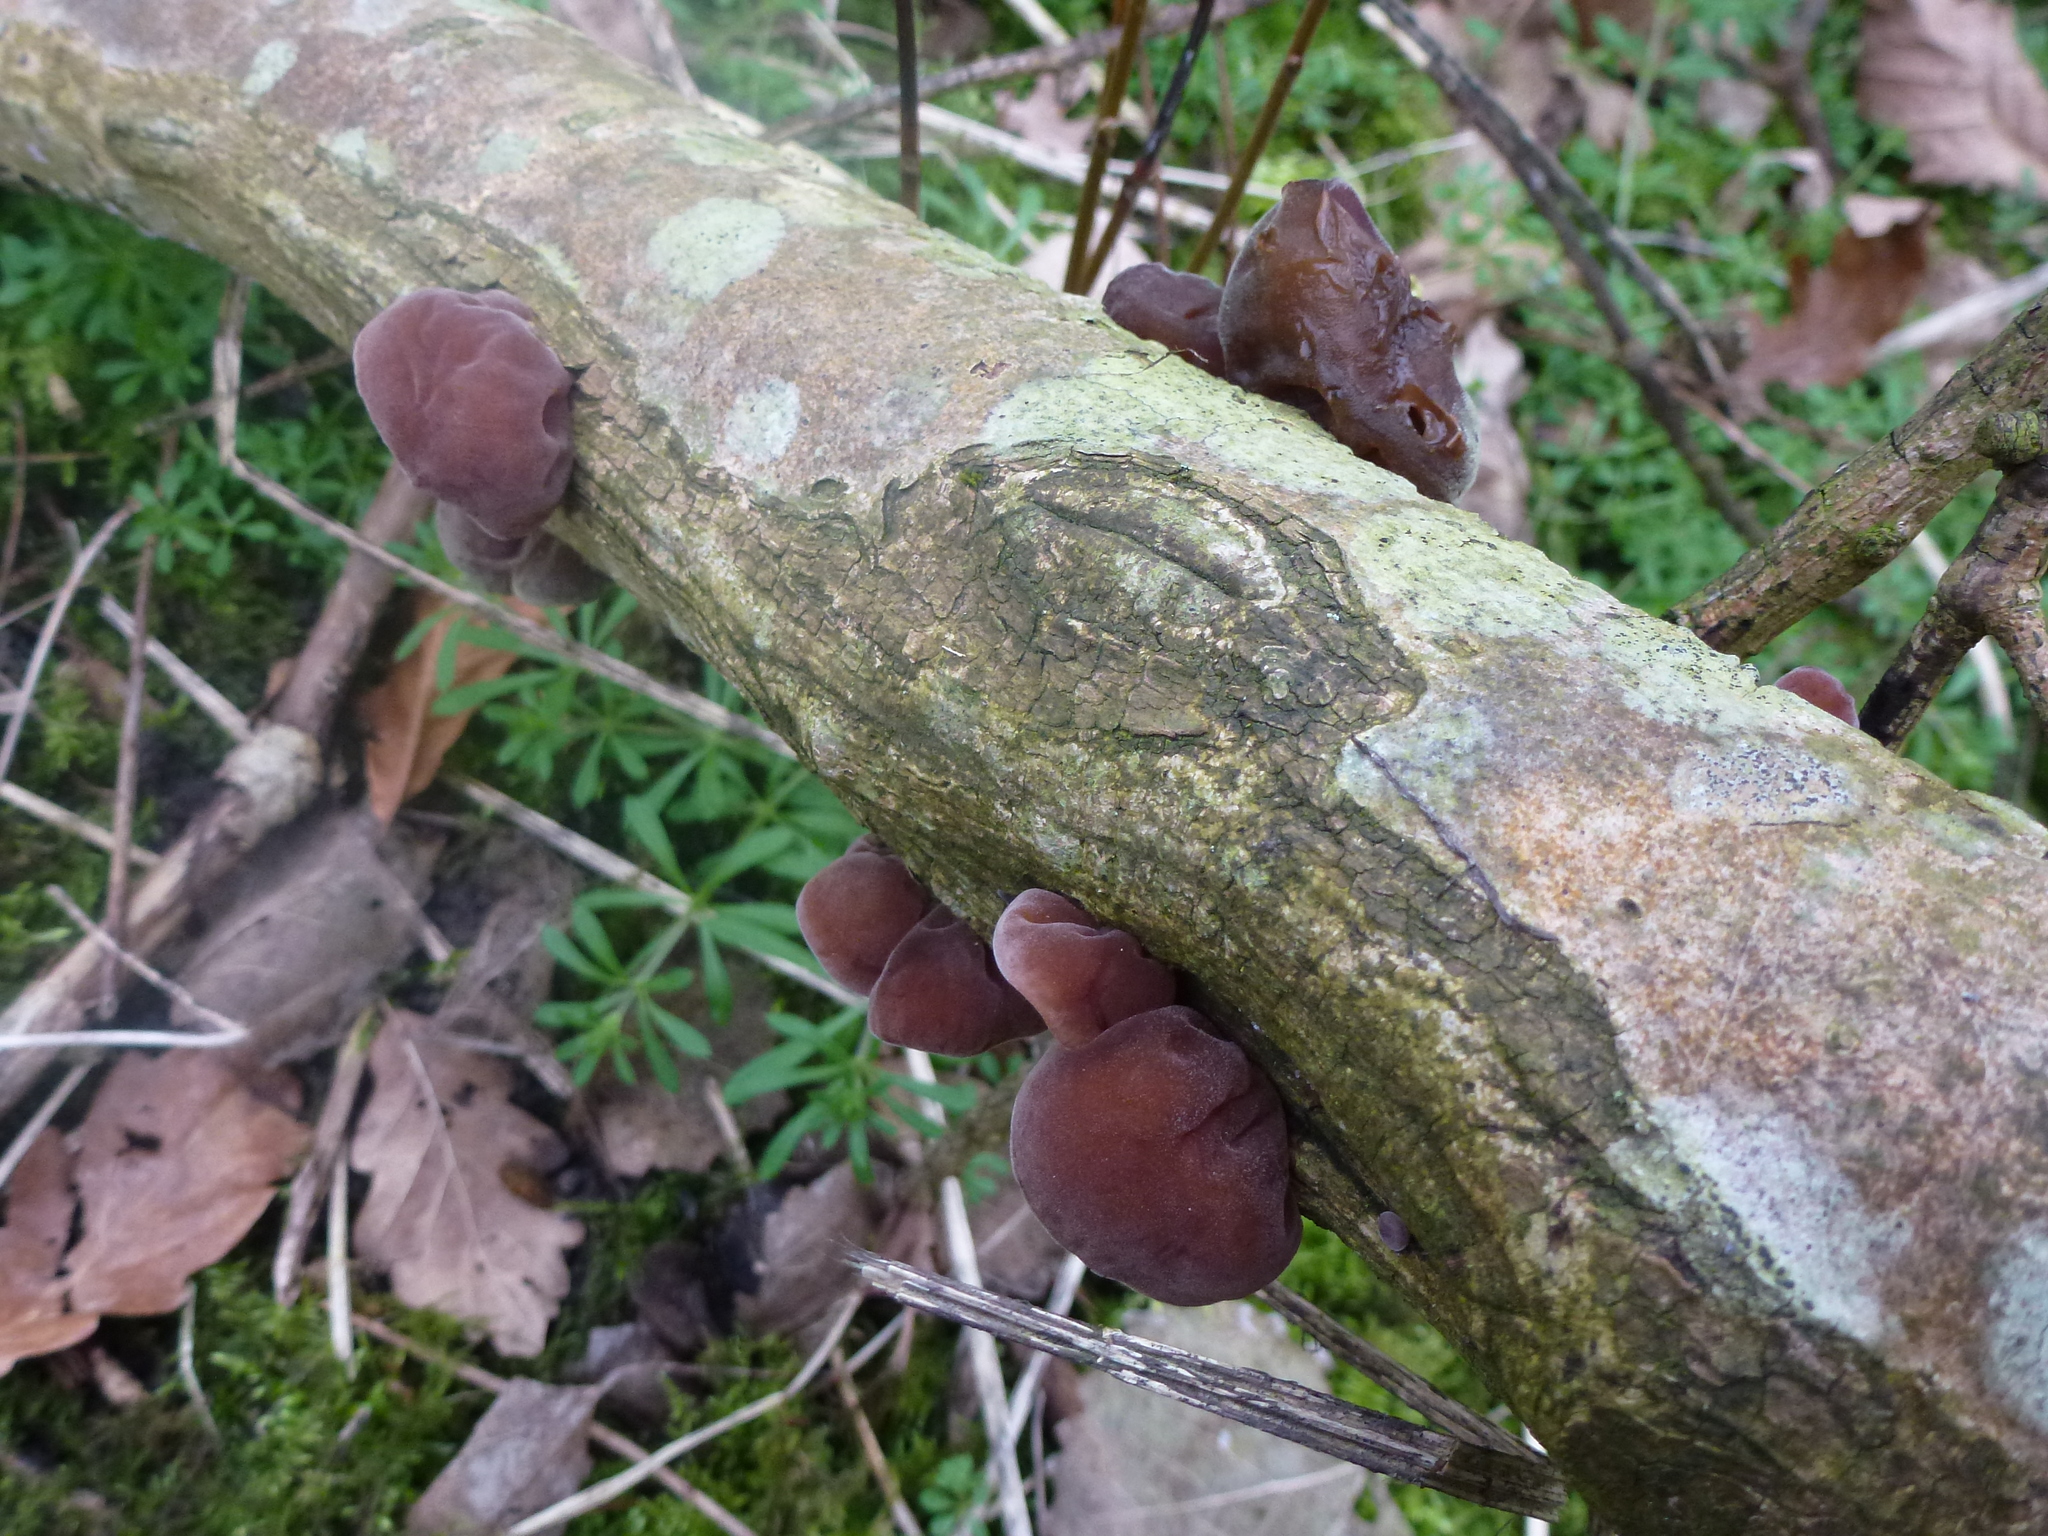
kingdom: Fungi
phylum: Basidiomycota
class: Agaricomycetes
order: Auriculariales
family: Auriculariaceae
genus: Auricularia
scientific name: Auricularia auricula-judae
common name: Jelly ear
